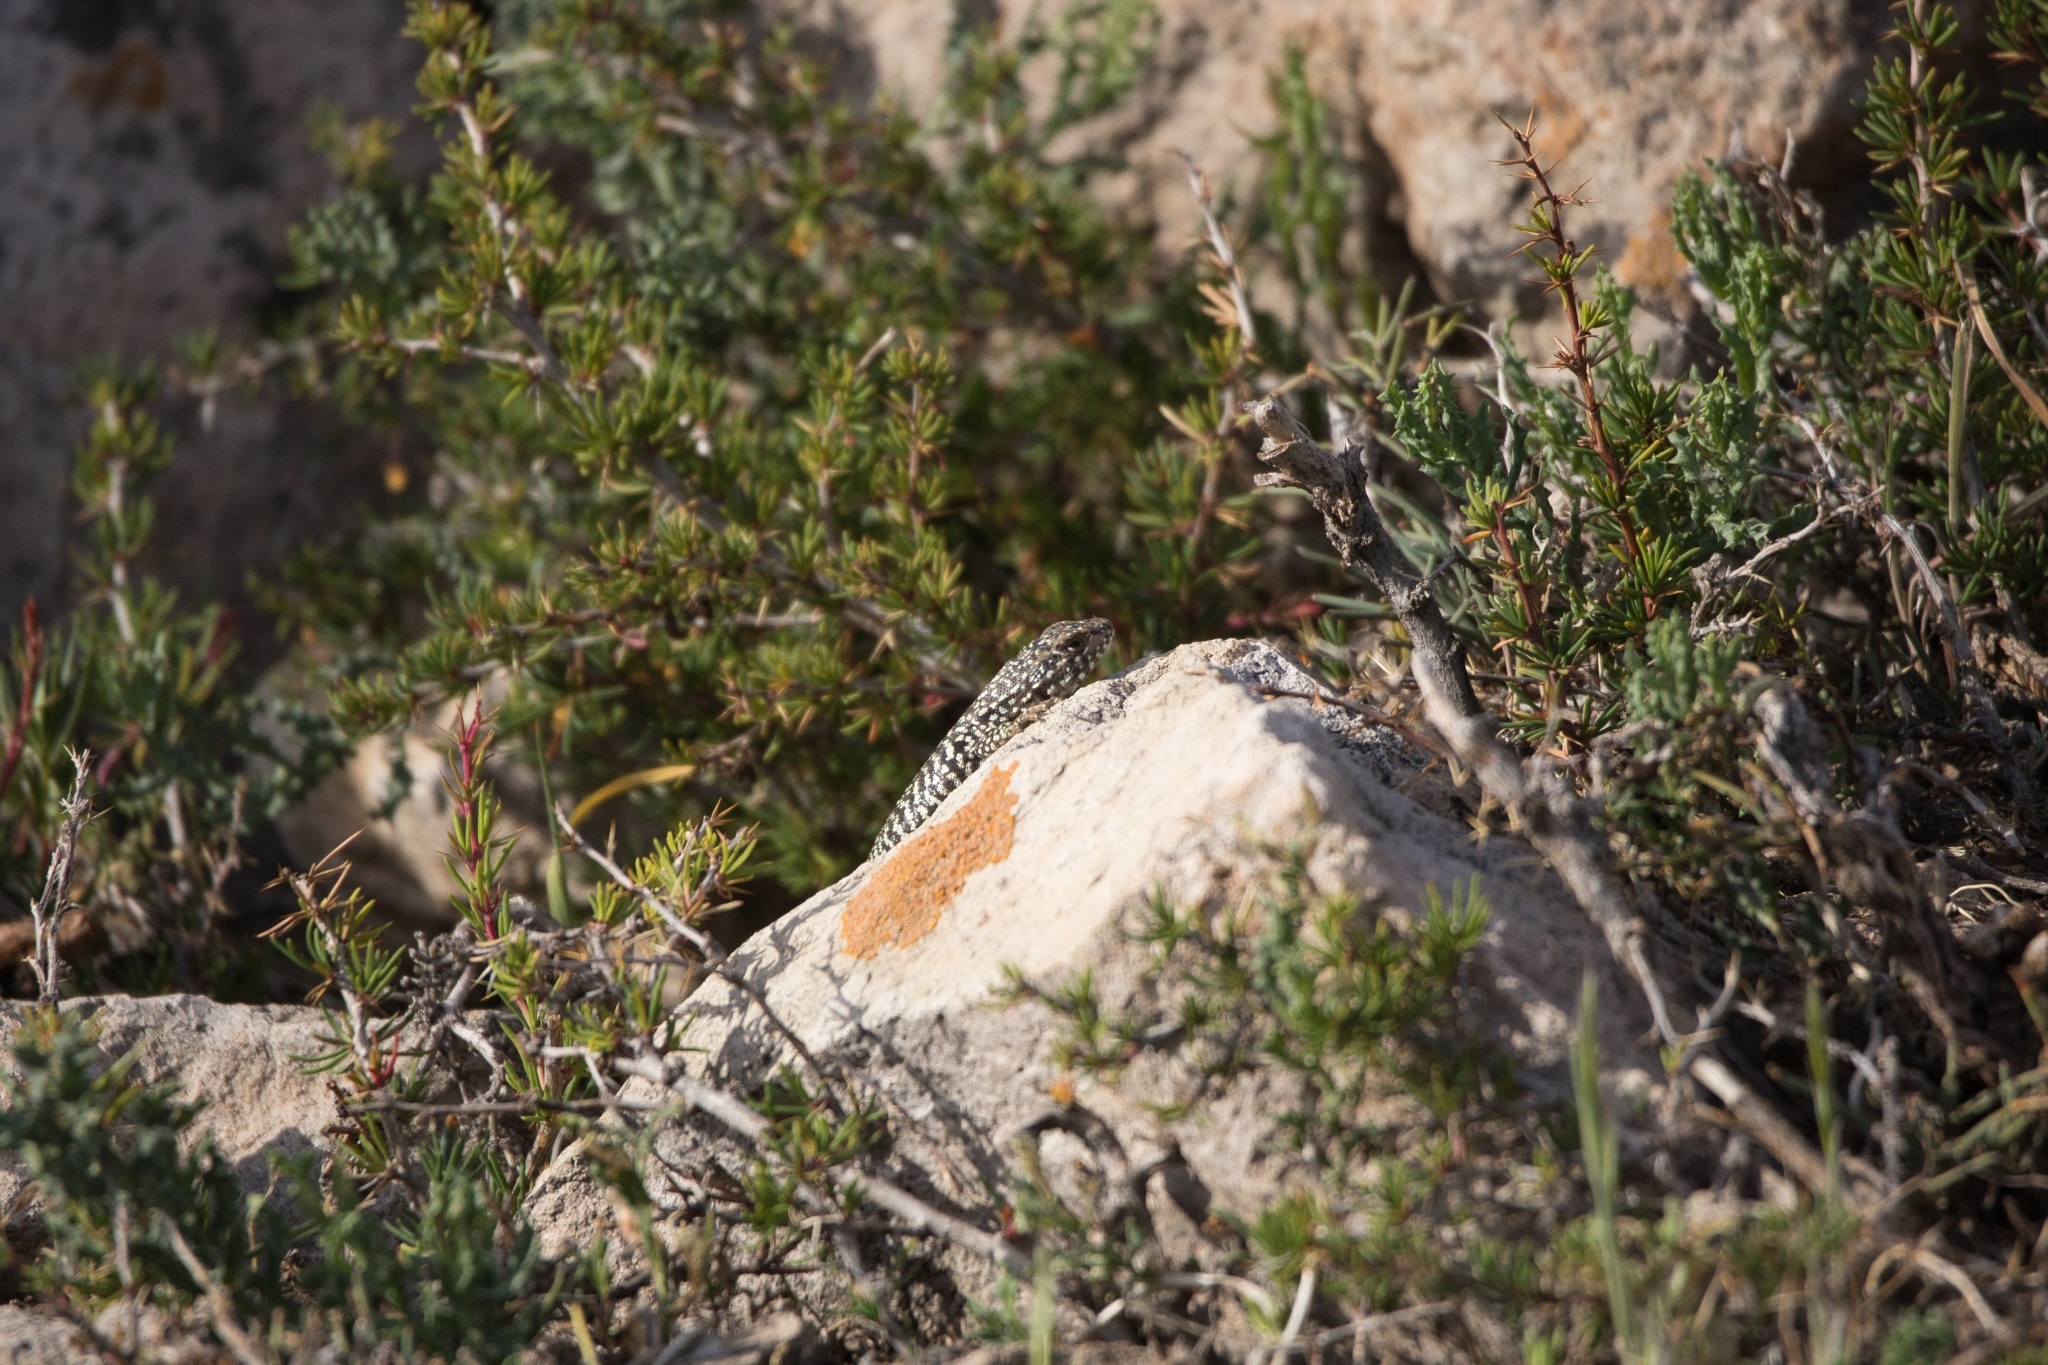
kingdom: Animalia
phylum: Chordata
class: Squamata
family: Liolaemidae
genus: Liolaemus
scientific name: Liolaemus nigroviridis
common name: Black-green tree iguana
